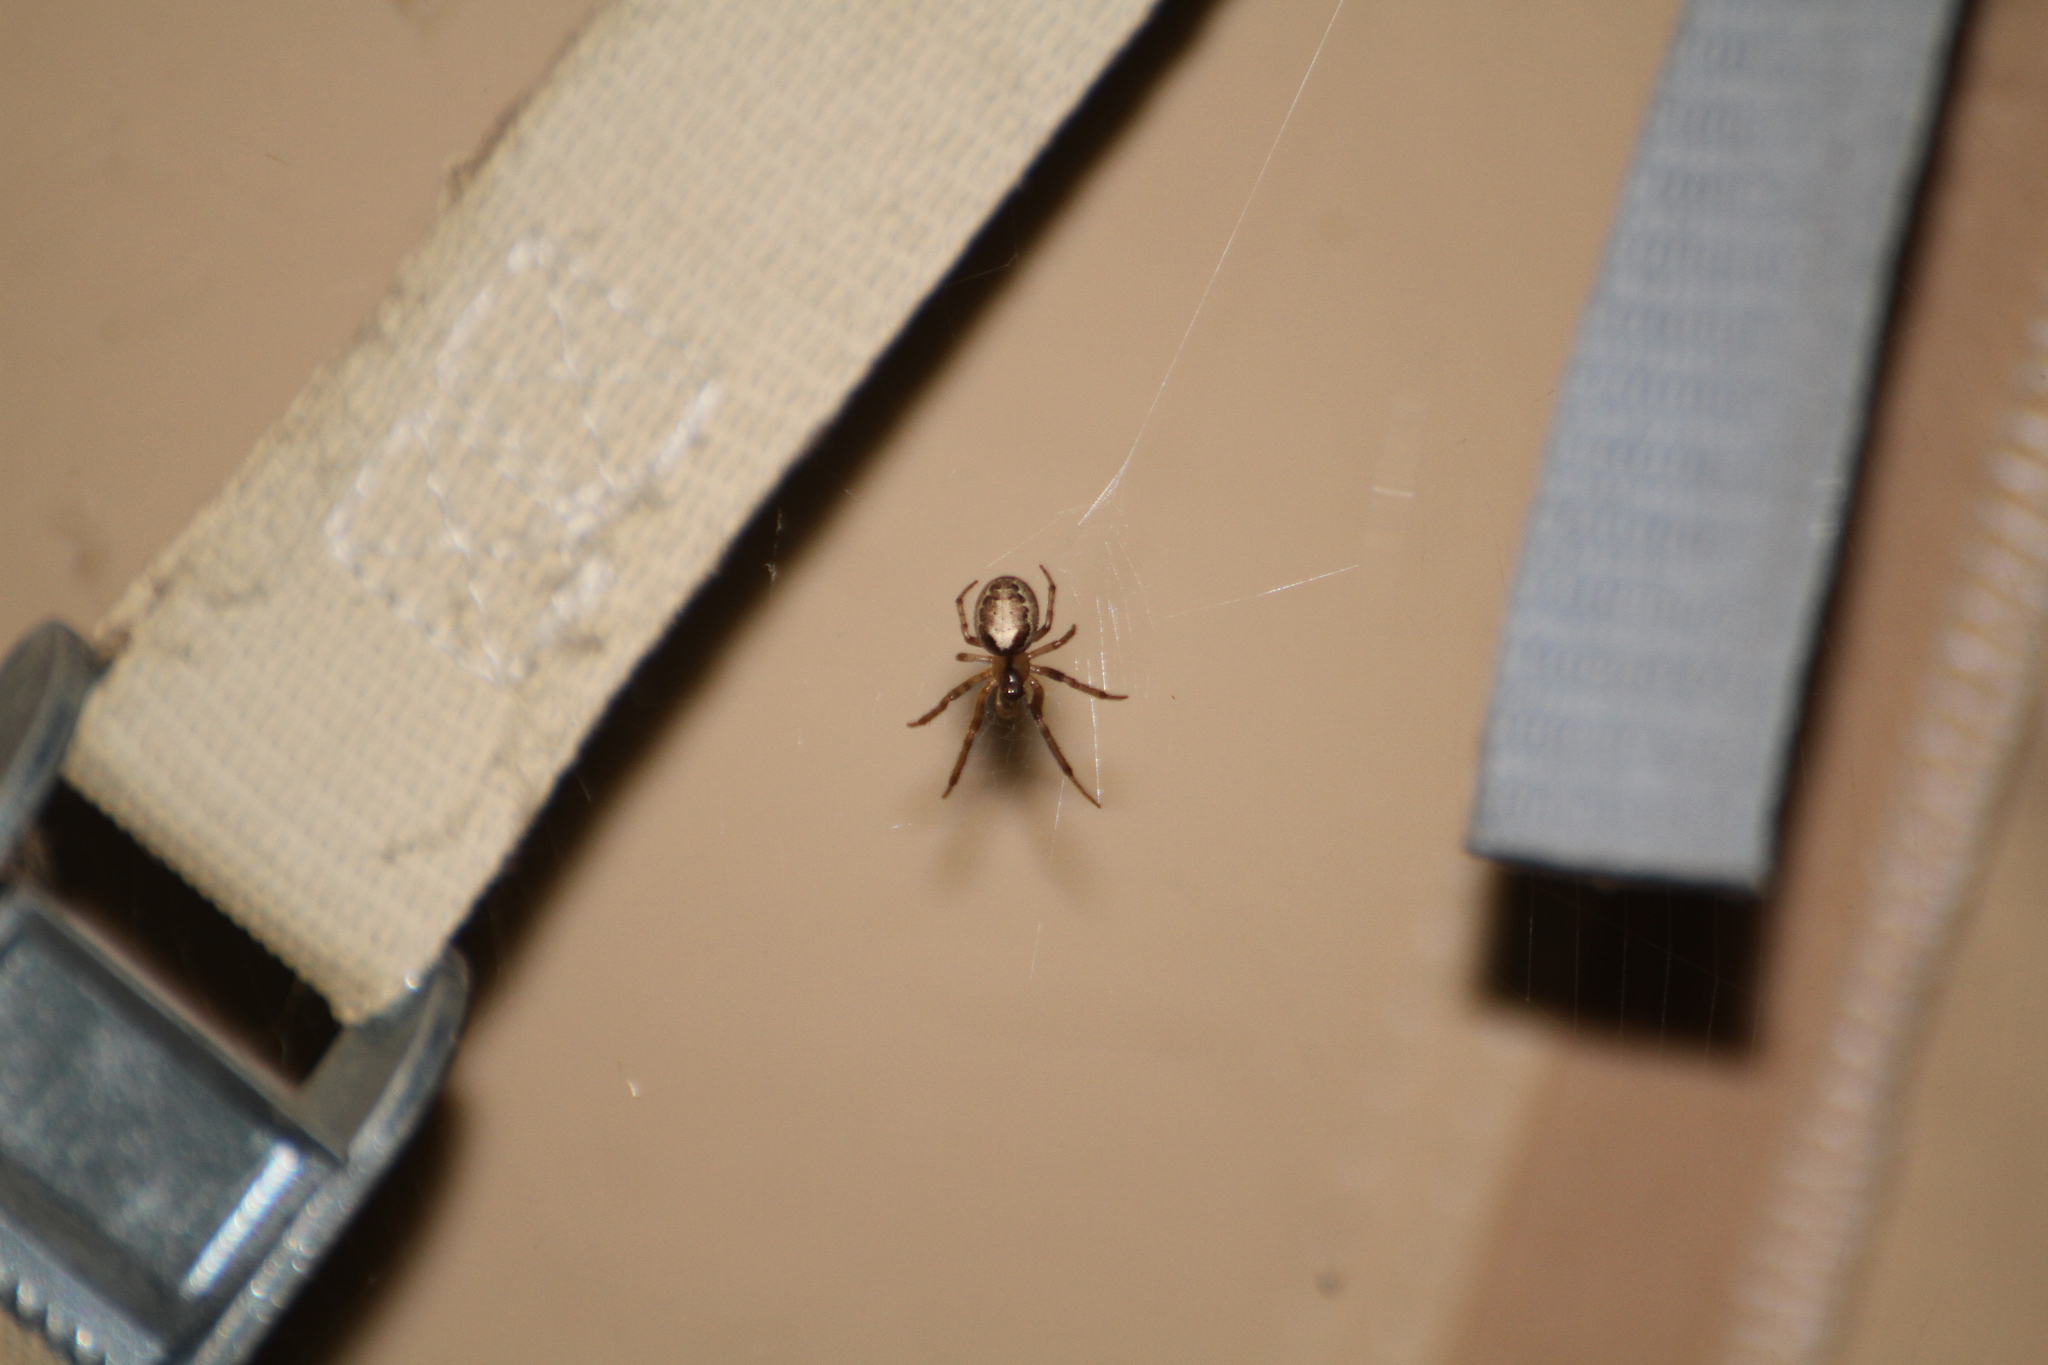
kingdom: Animalia
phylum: Arthropoda
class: Arachnida
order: Araneae
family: Araneidae
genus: Zygiella
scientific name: Zygiella x-notata
